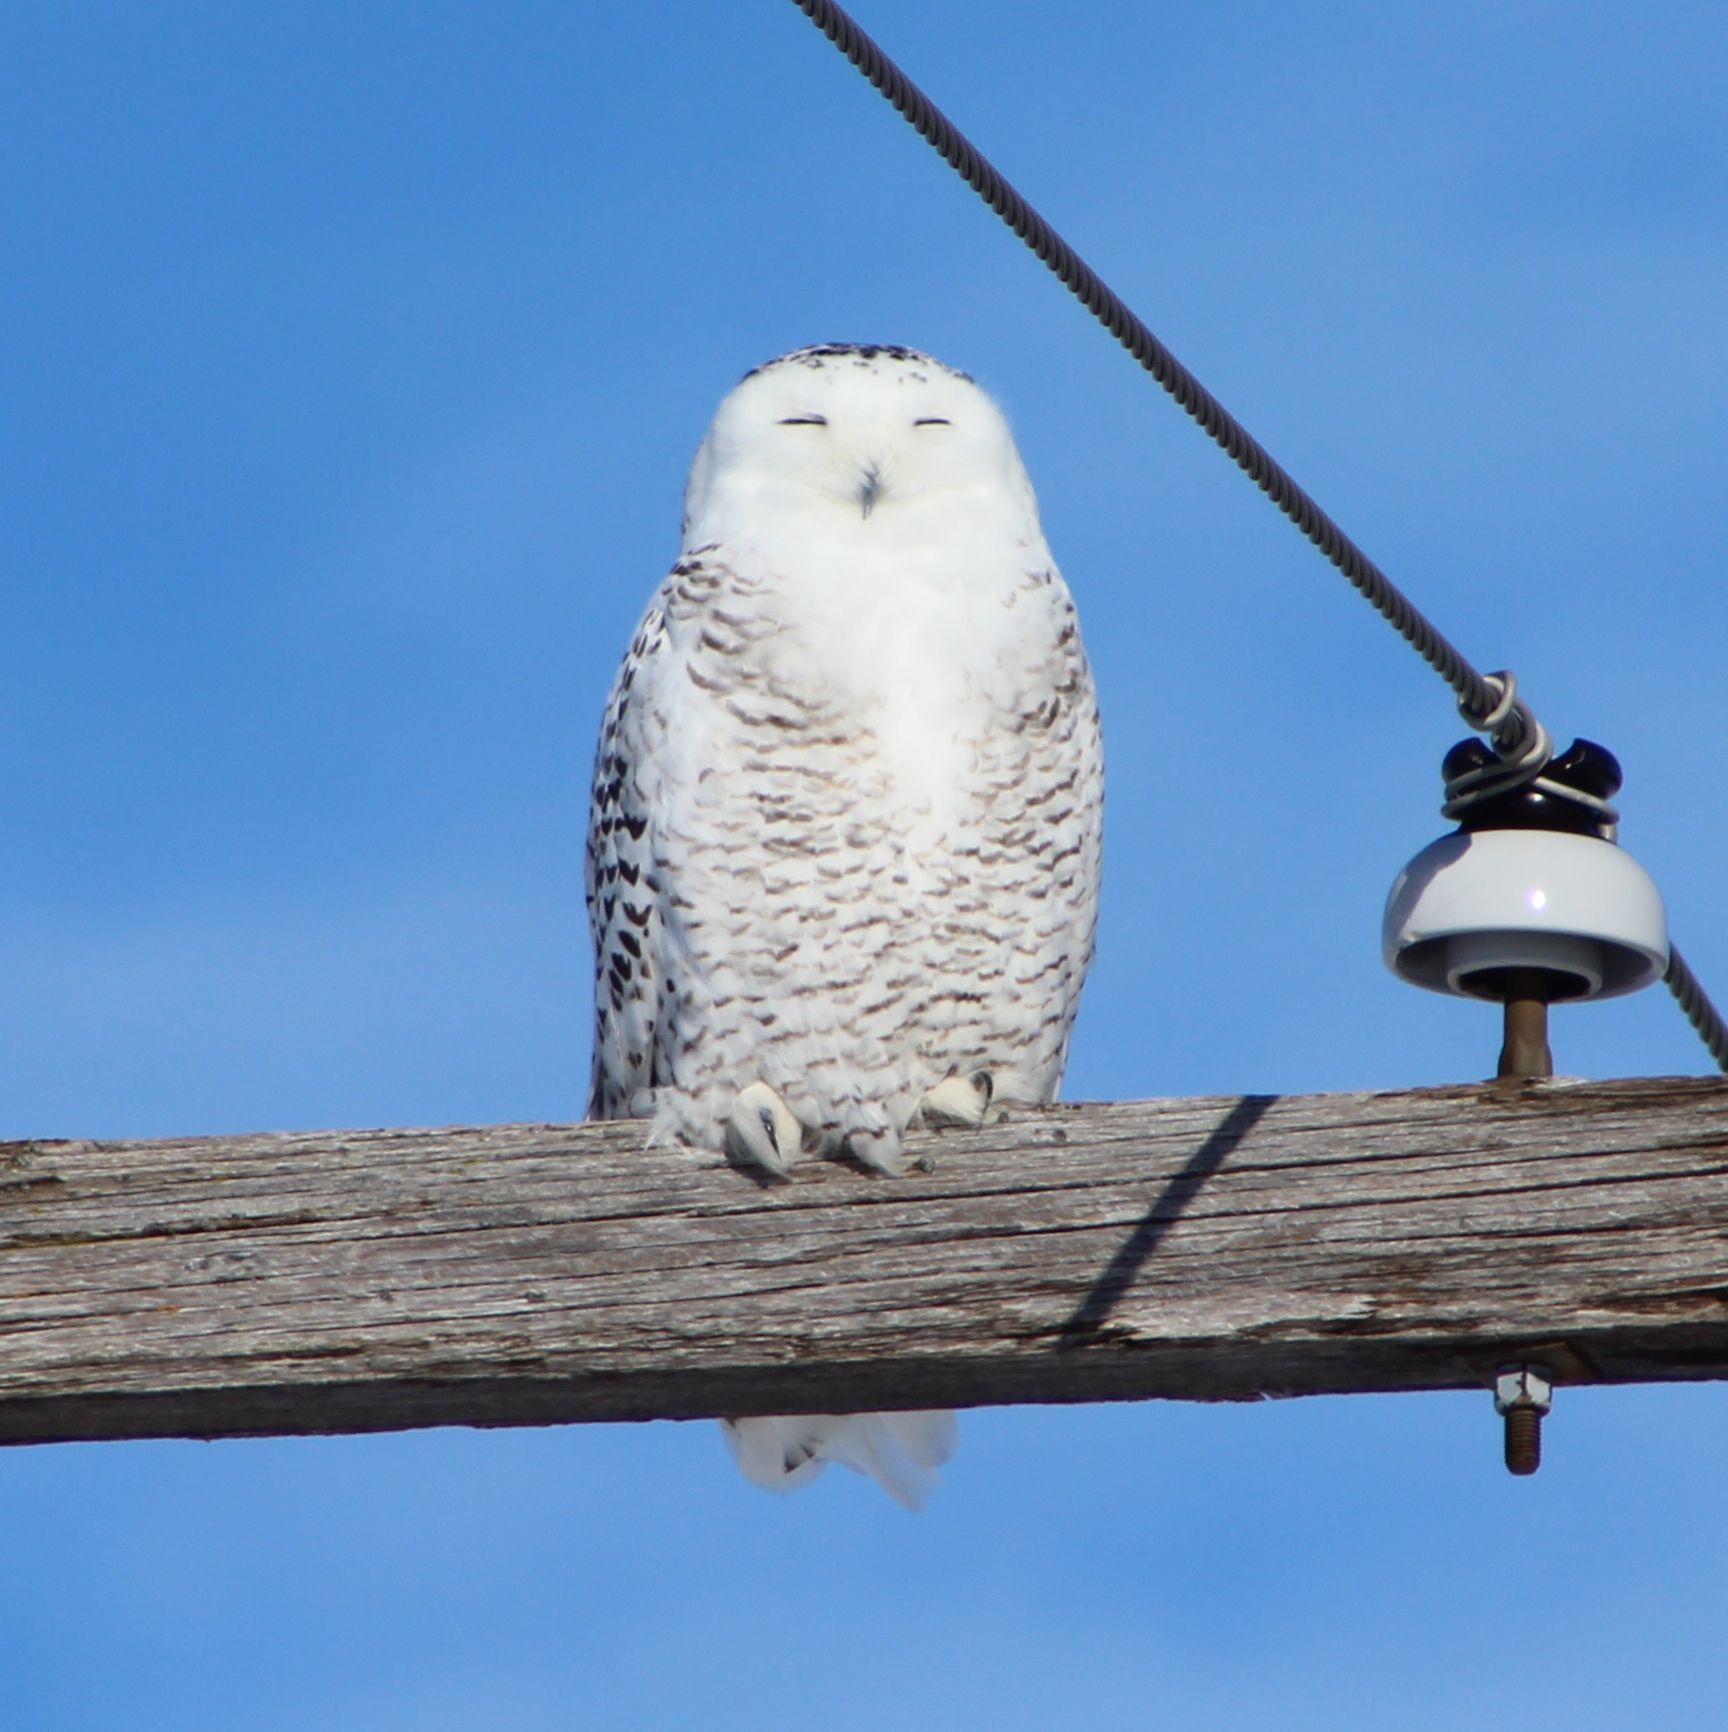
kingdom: Animalia
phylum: Chordata
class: Aves
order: Strigiformes
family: Strigidae
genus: Bubo
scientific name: Bubo scandiacus
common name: Snowy owl
